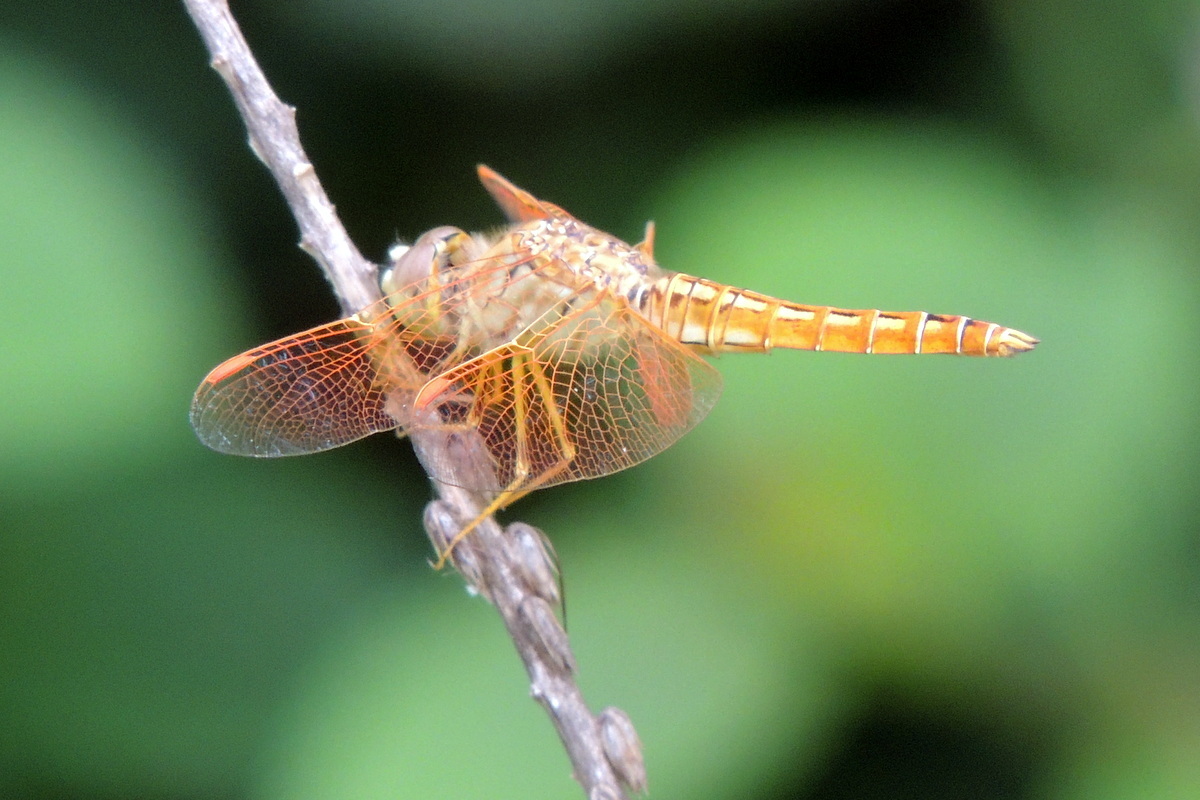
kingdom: Animalia
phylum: Arthropoda
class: Insecta
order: Odonata
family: Libellulidae
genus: Brachythemis
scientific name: Brachythemis contaminata
